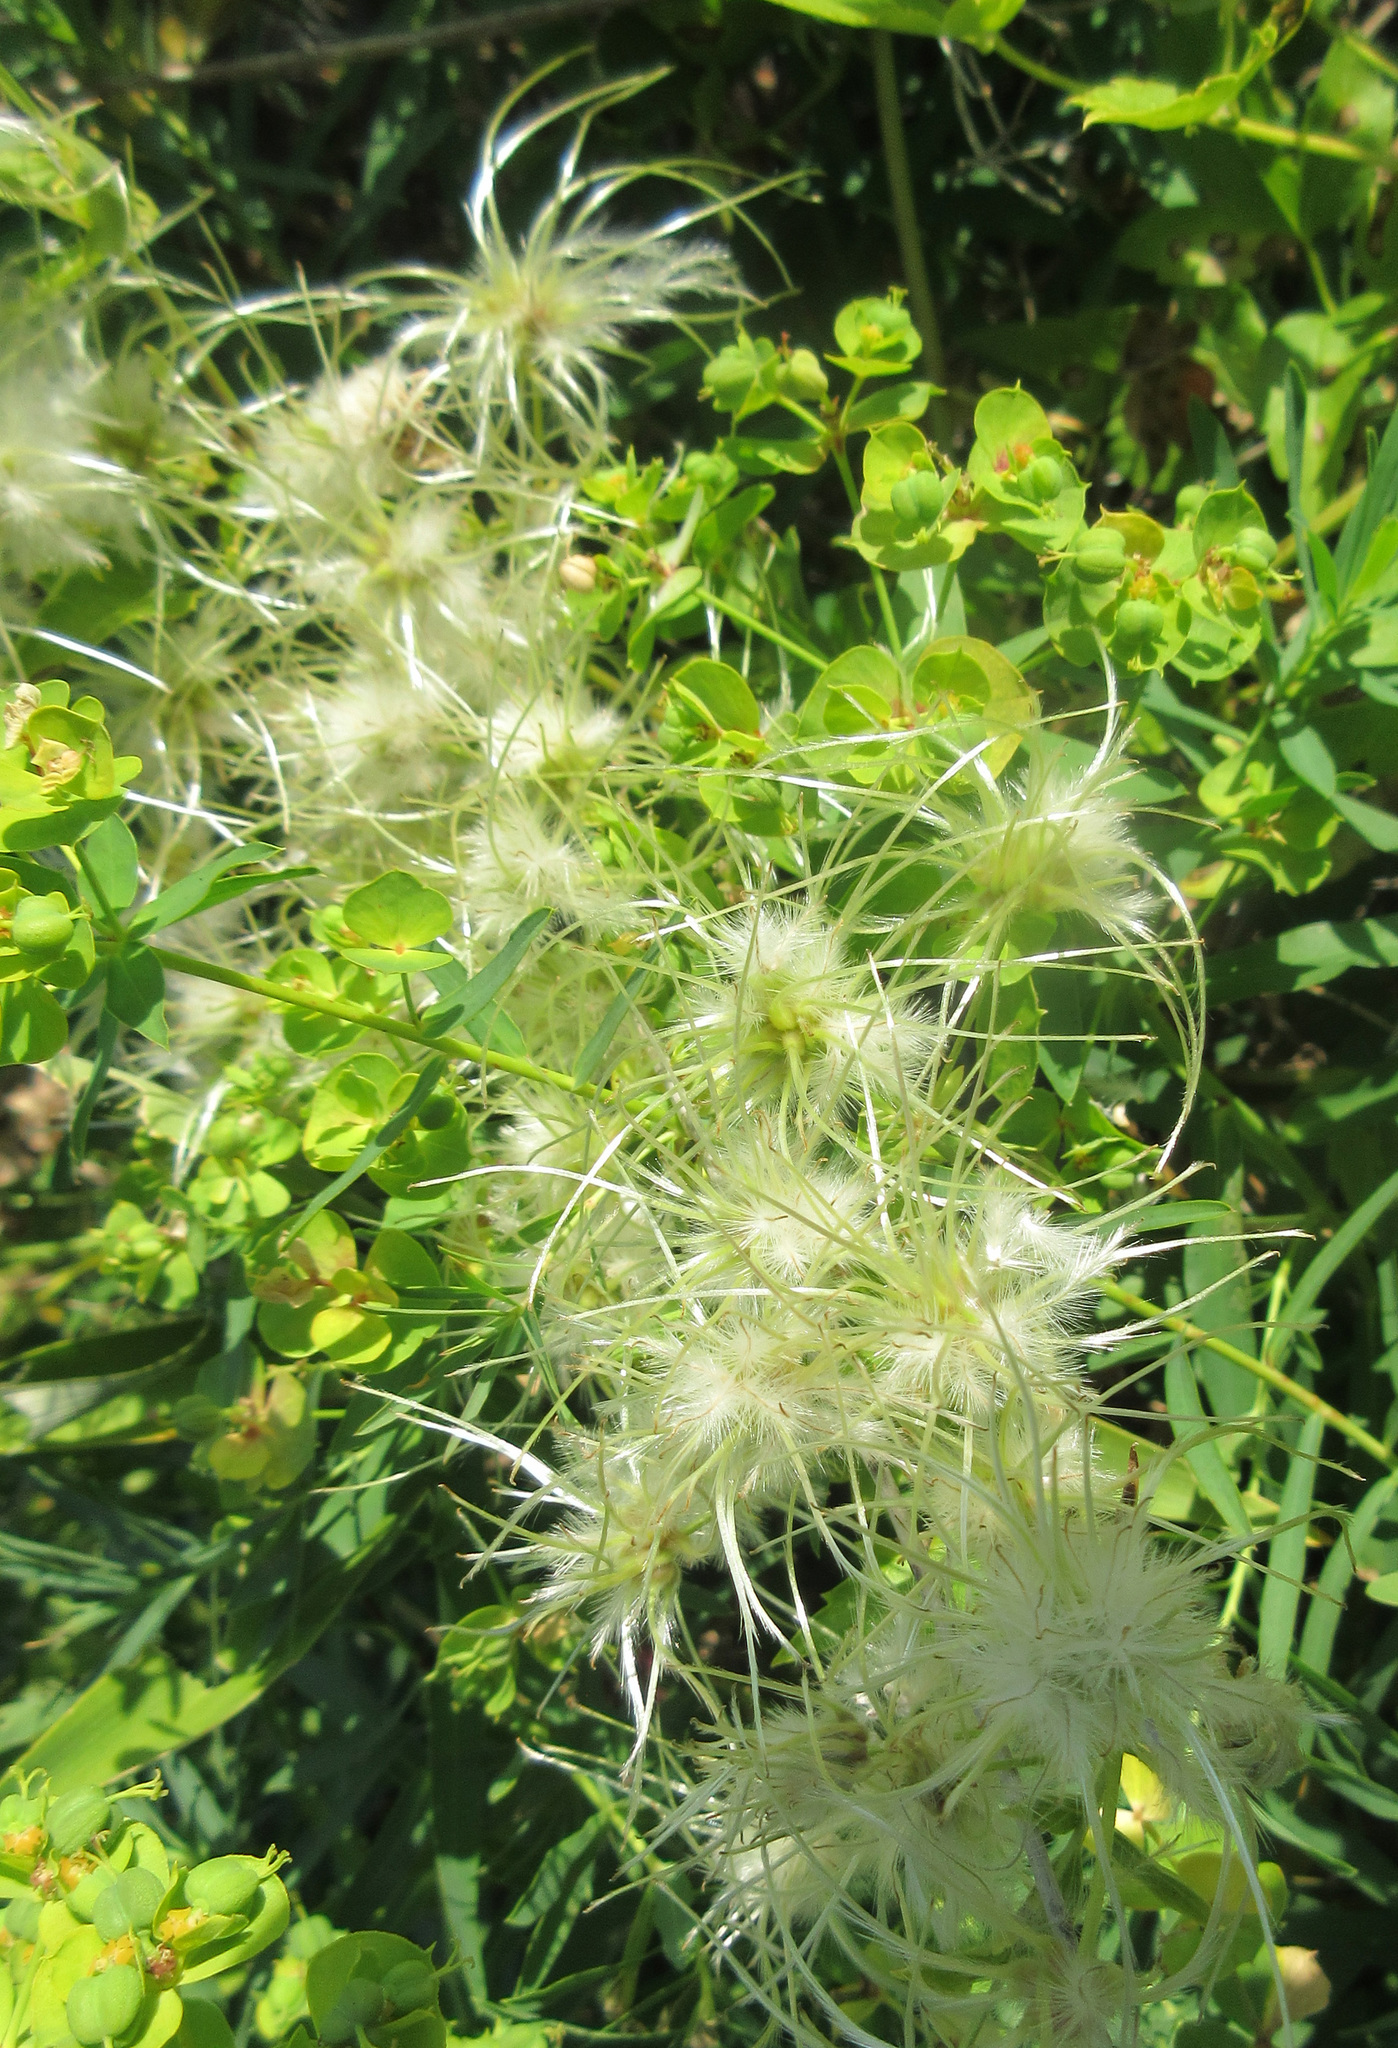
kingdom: Plantae
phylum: Tracheophyta
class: Magnoliopsida
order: Ranunculales
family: Ranunculaceae
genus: Clematis
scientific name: Clematis ligusticifolia
